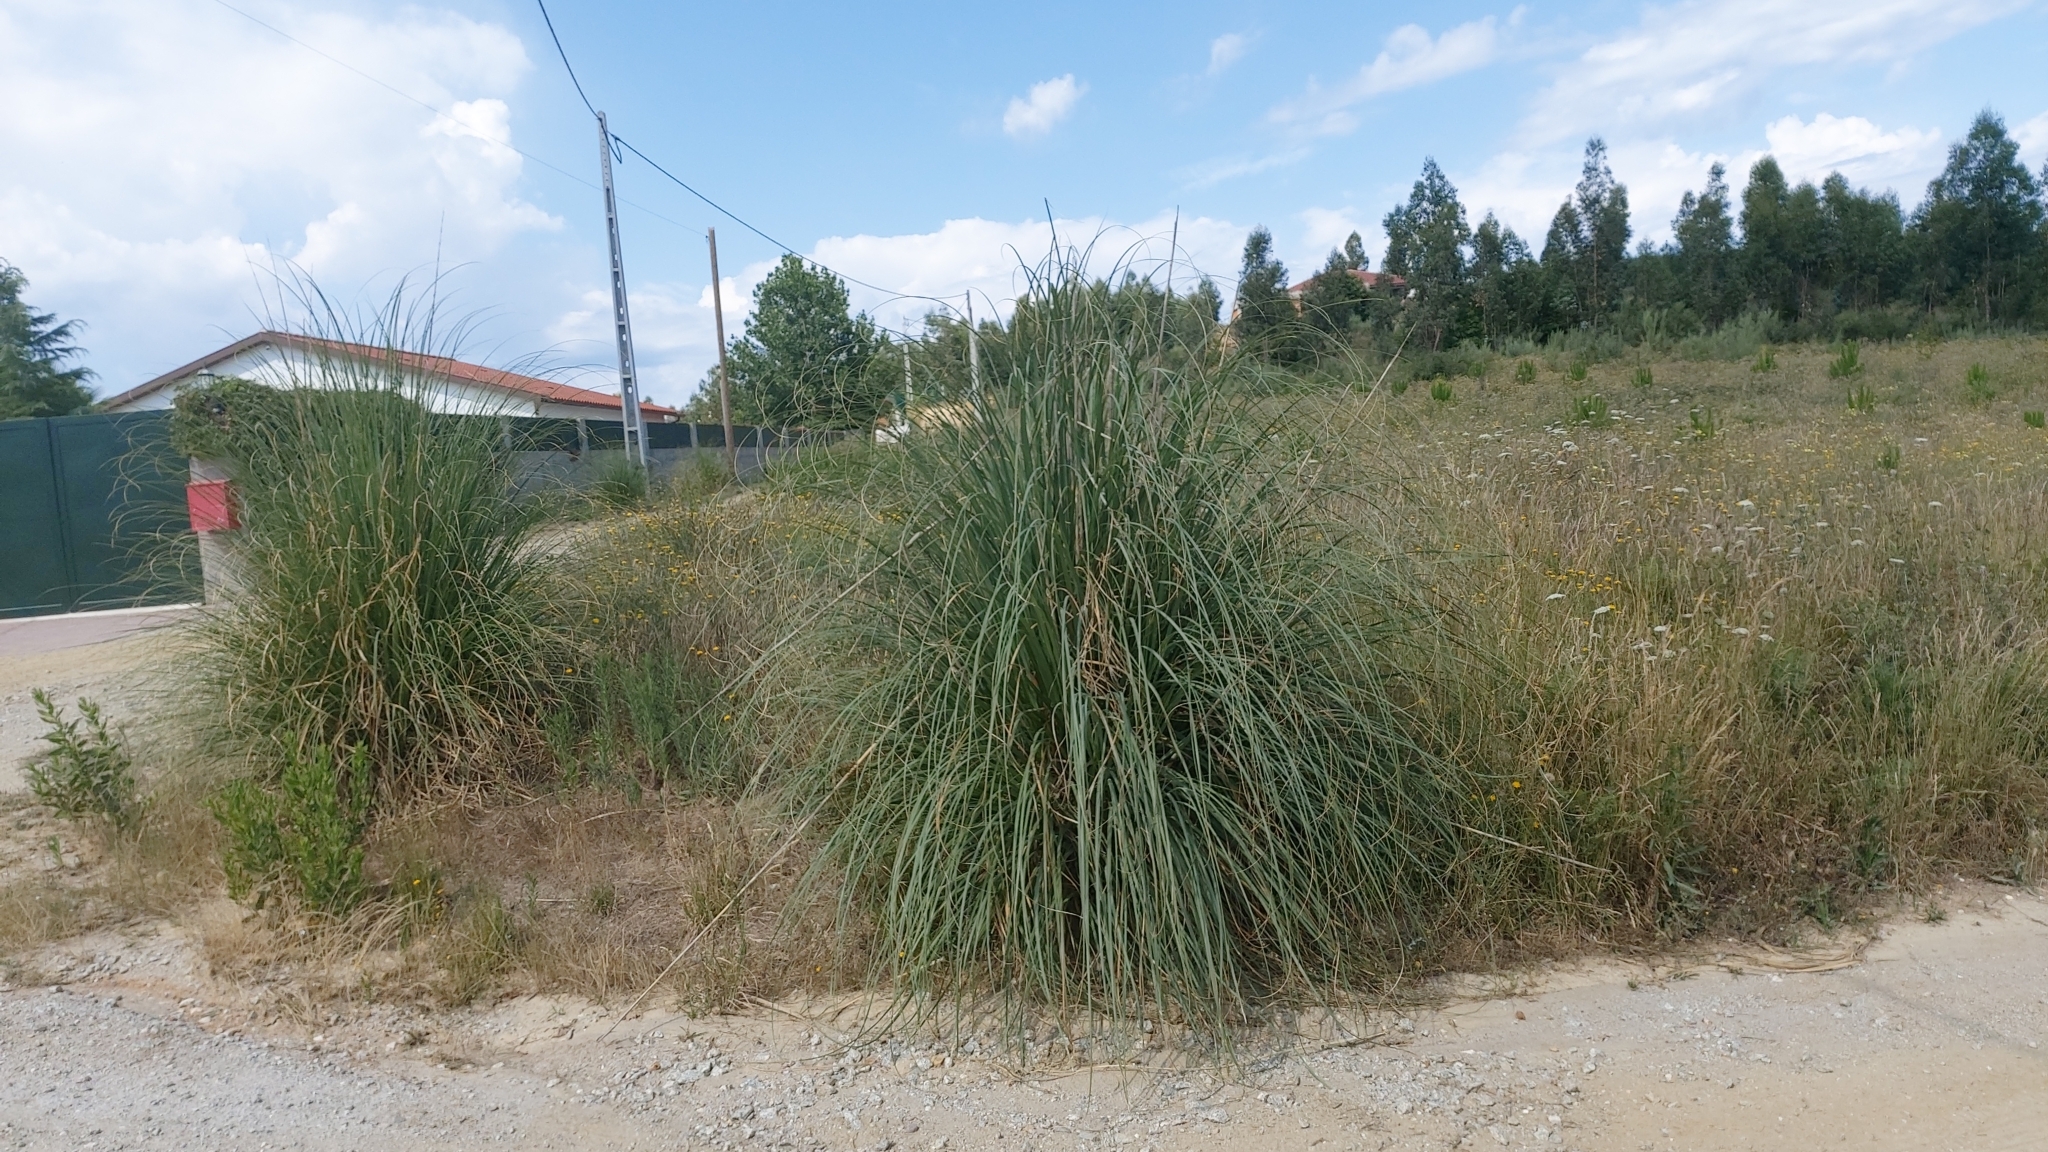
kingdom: Plantae
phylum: Tracheophyta
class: Liliopsida
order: Poales
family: Poaceae
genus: Cortaderia
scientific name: Cortaderia selloana
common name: Uruguayan pampas grass
